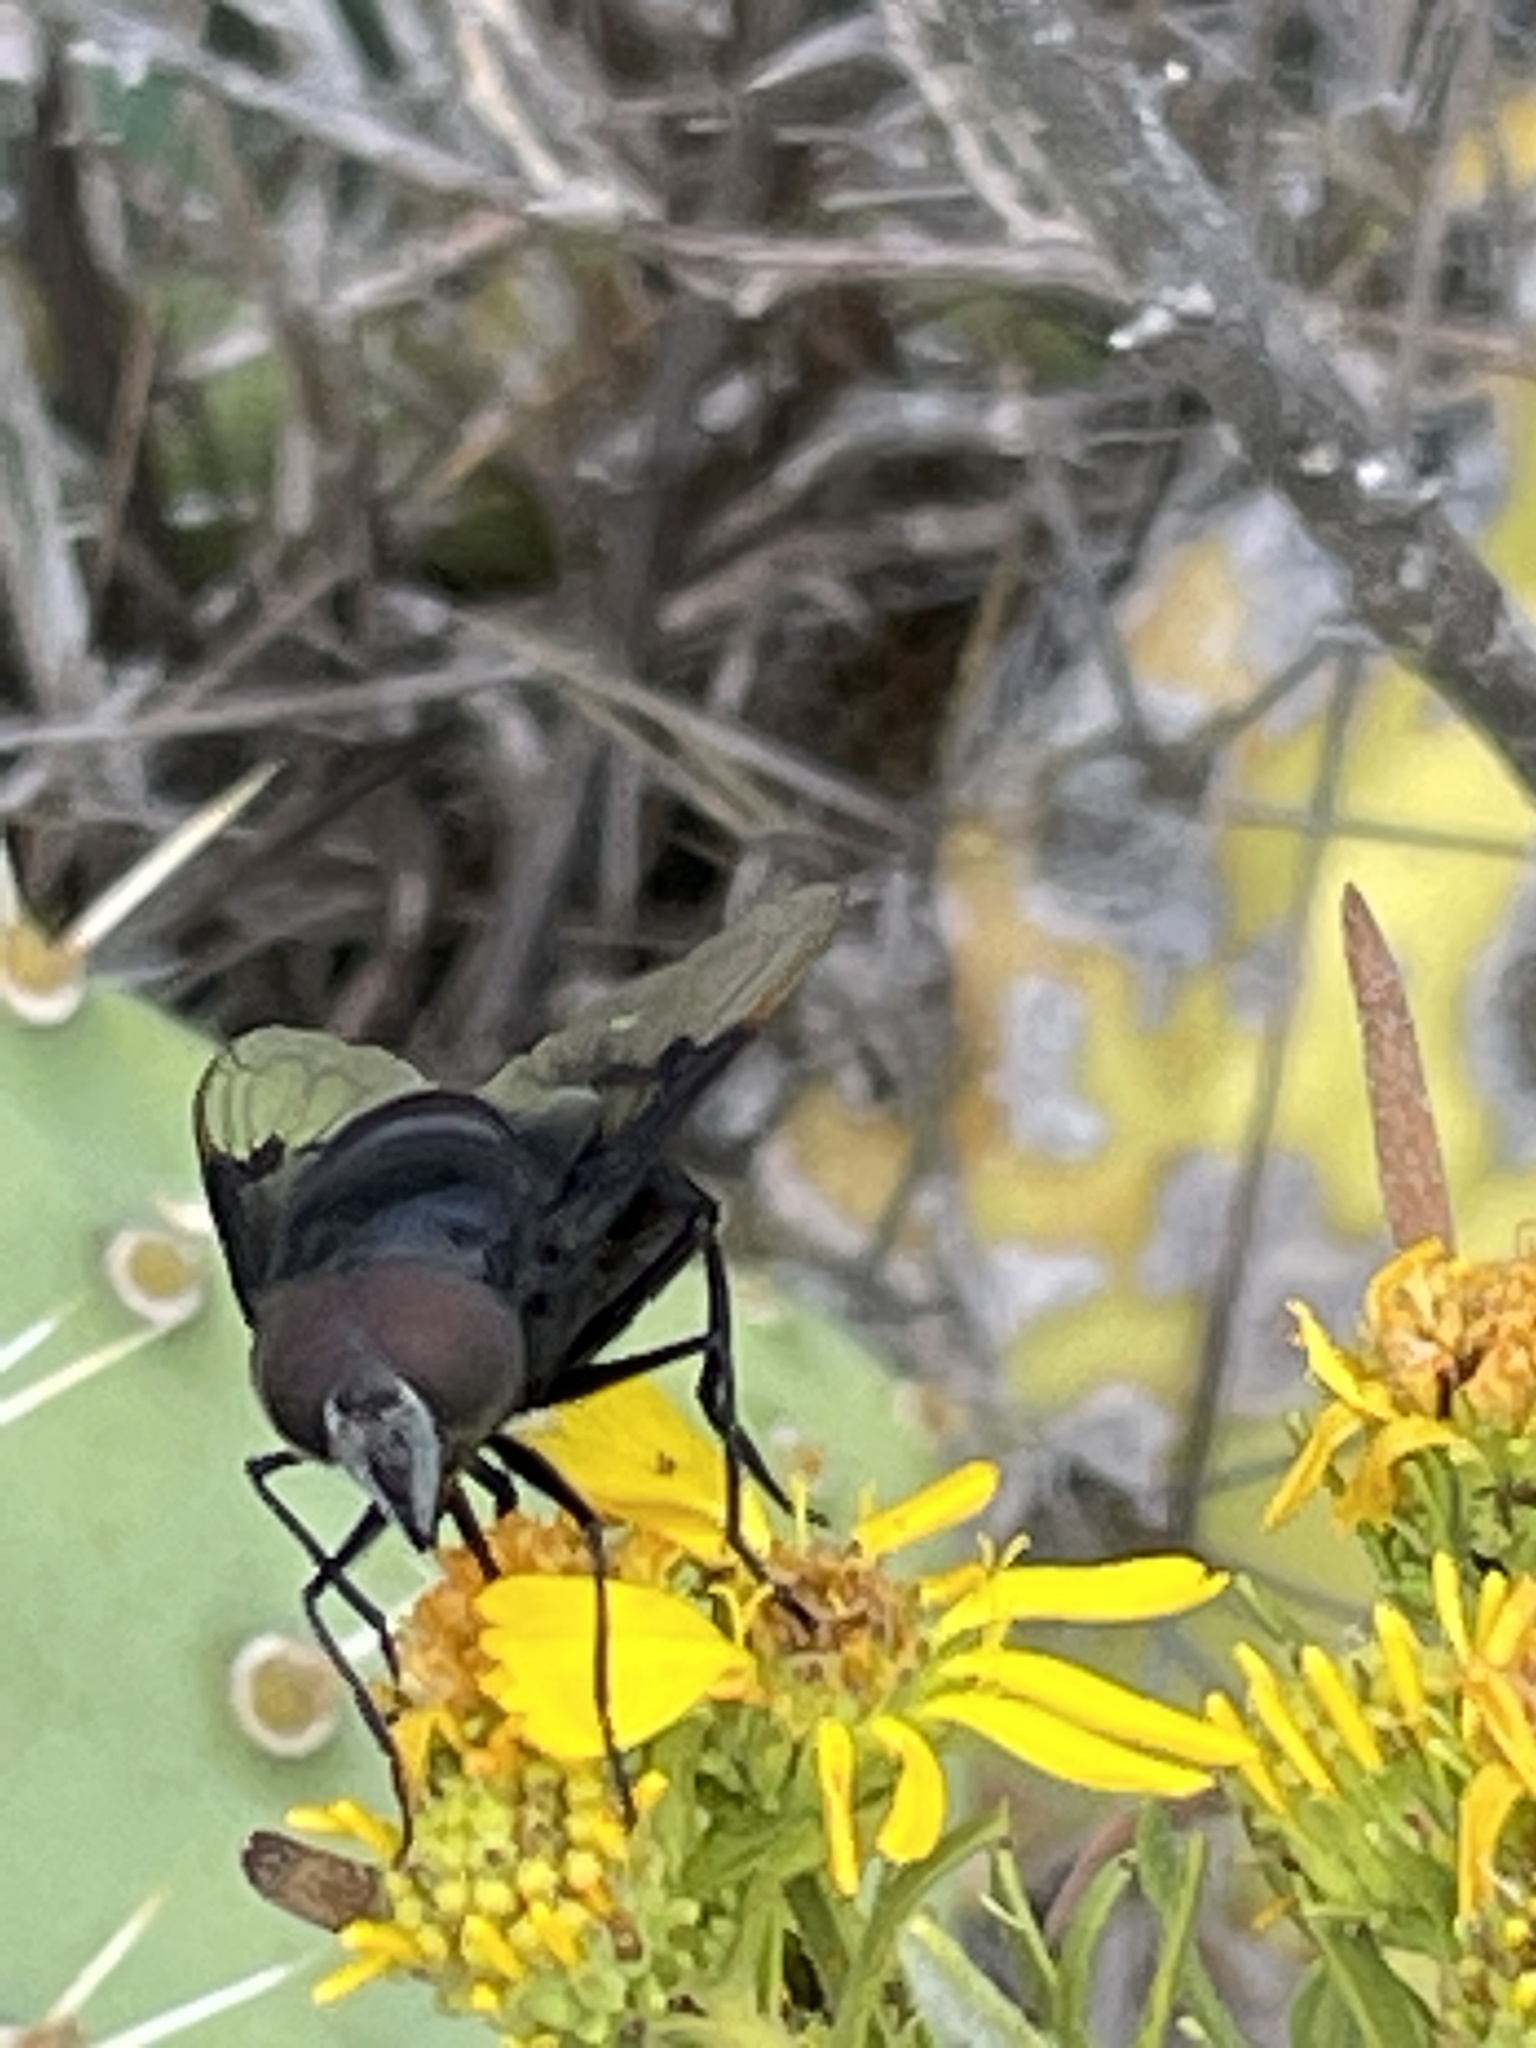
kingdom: Animalia
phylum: Arthropoda
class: Insecta
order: Diptera
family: Syrphidae
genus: Copestylum
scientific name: Copestylum mexicanum
